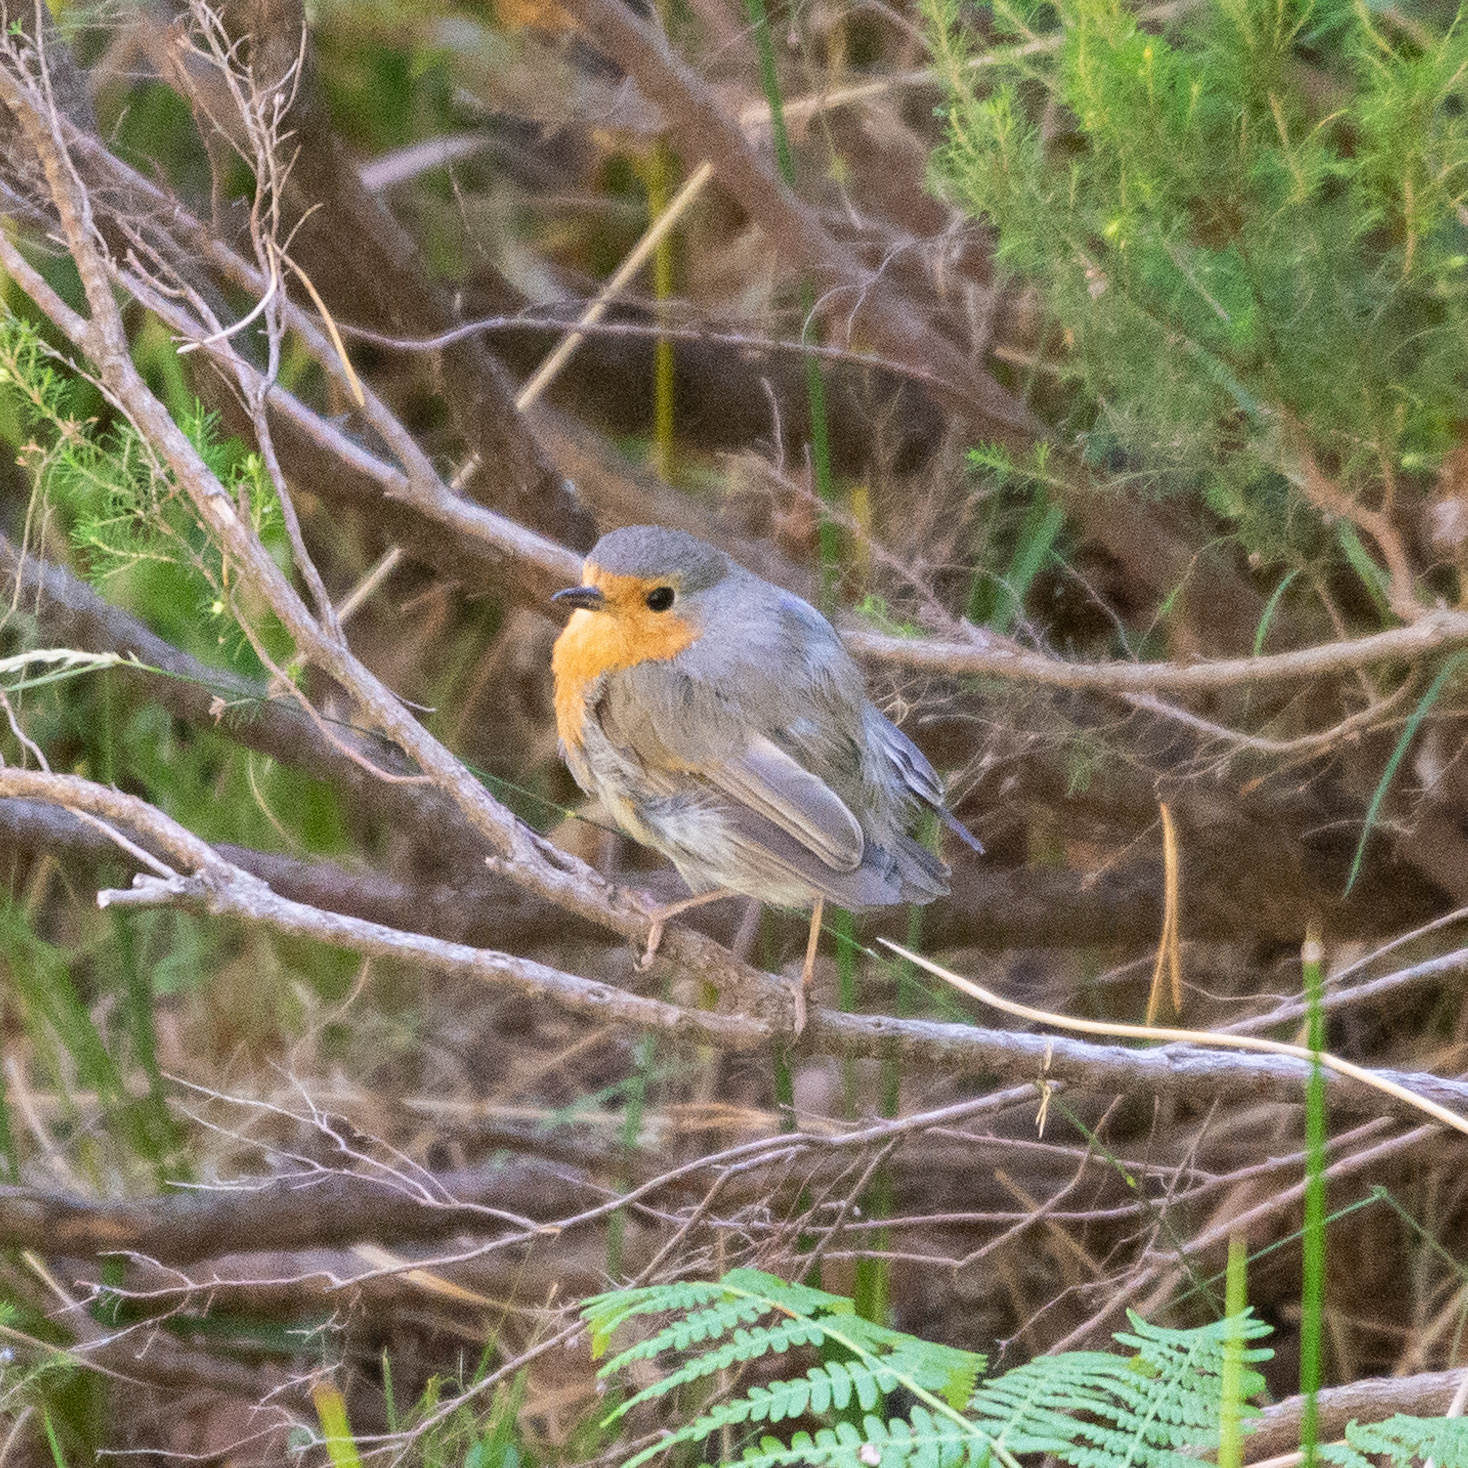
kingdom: Animalia
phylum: Chordata
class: Aves
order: Passeriformes
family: Muscicapidae
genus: Erithacus
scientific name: Erithacus rubecula
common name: European robin
